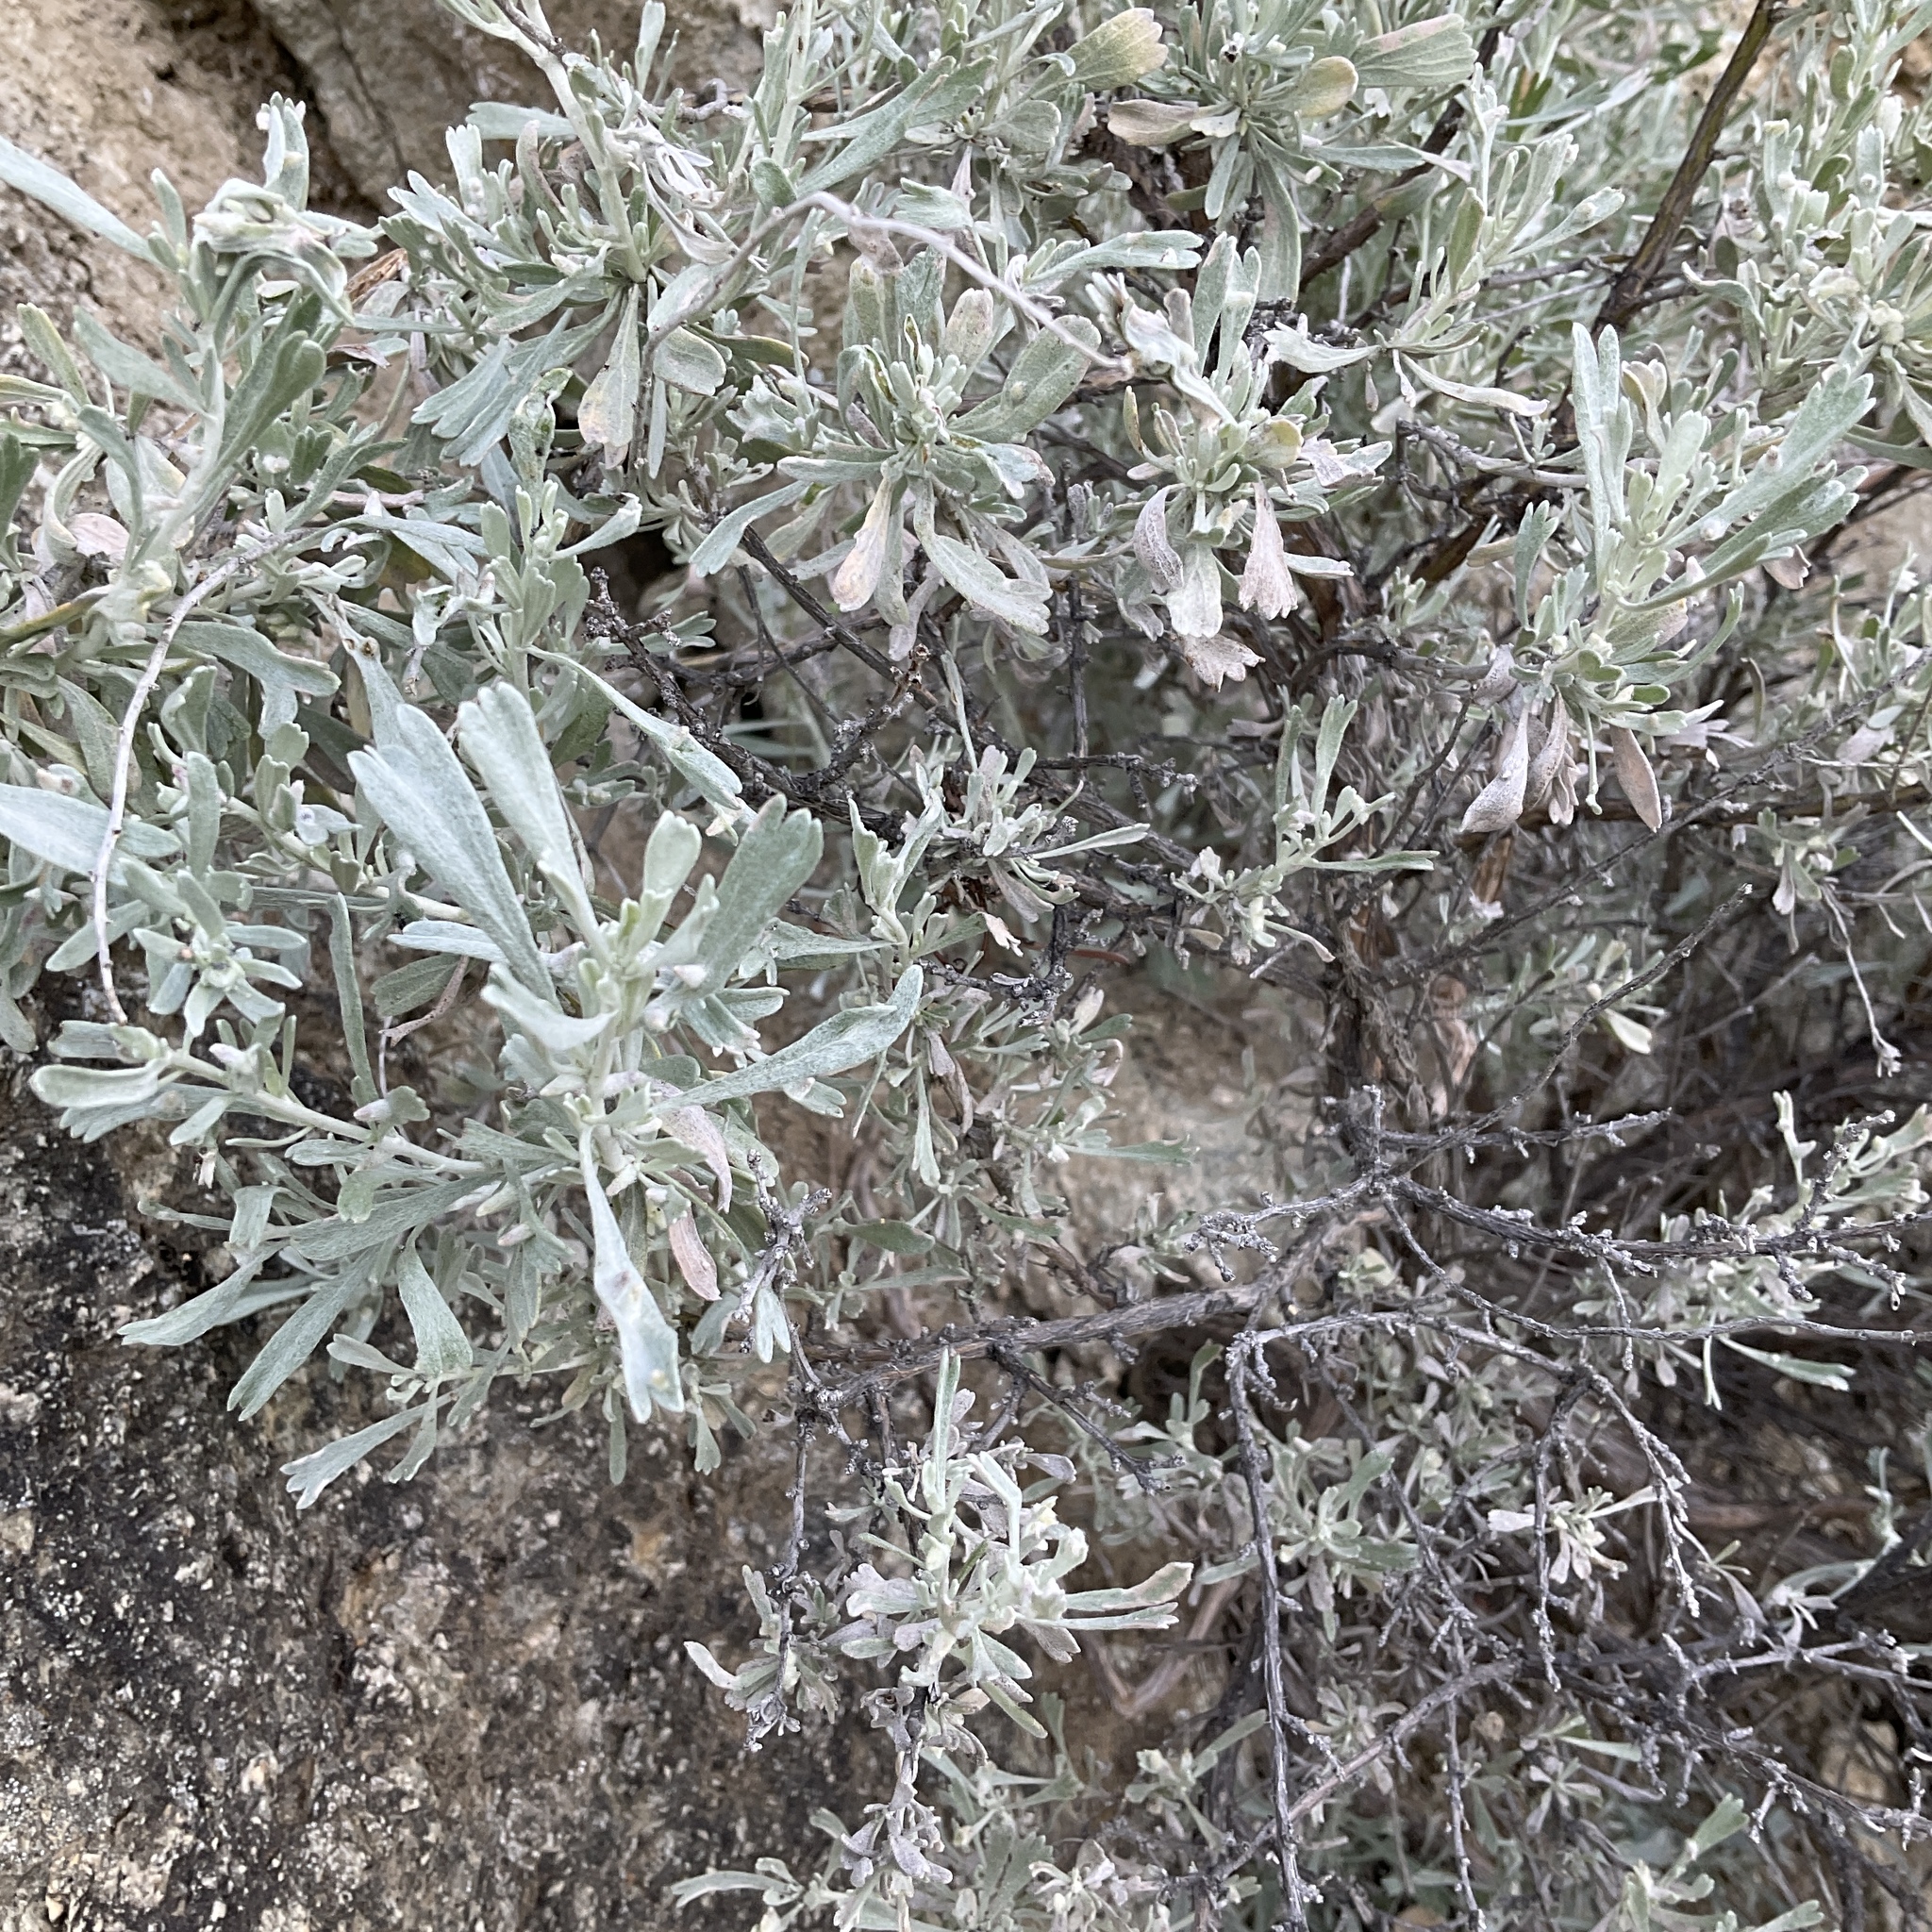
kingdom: Plantae
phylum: Tracheophyta
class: Magnoliopsida
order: Asterales
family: Asteraceae
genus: Artemisia
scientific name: Artemisia tridentata
